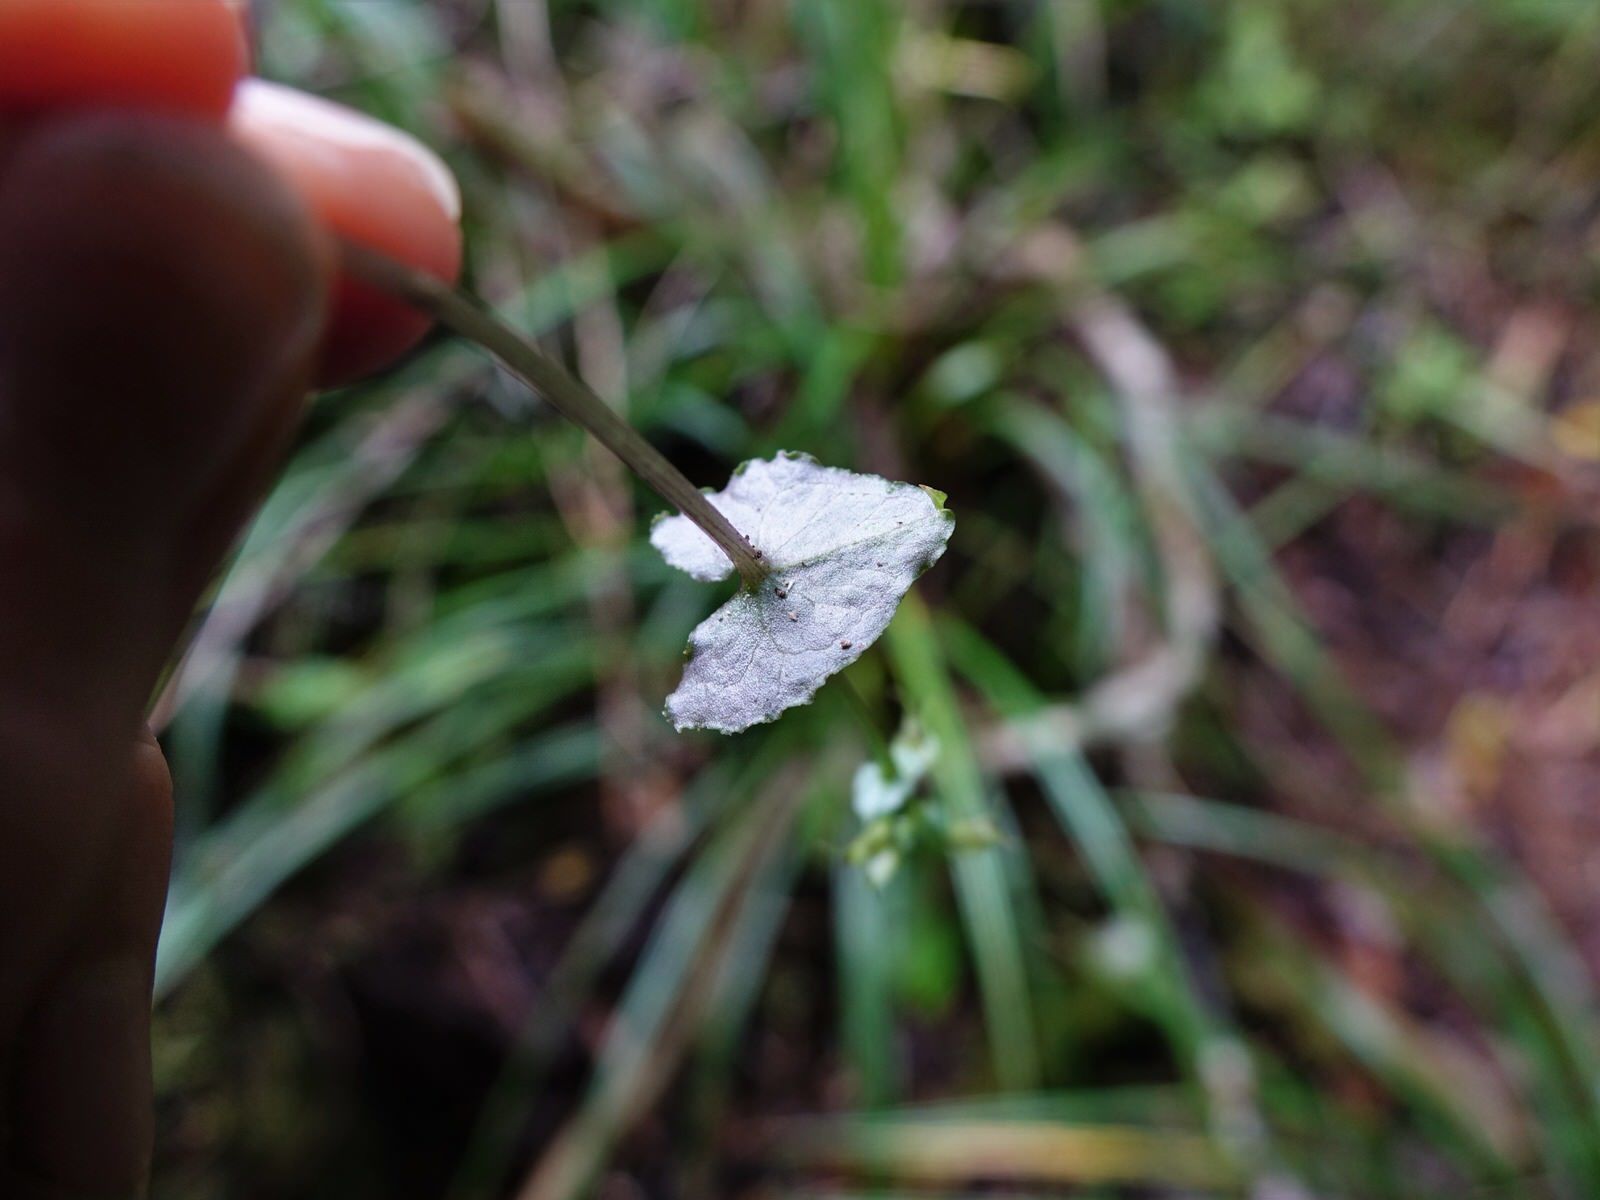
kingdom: Plantae
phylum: Tracheophyta
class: Liliopsida
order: Asparagales
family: Orchidaceae
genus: Acianthus
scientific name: Acianthus sinclairii
